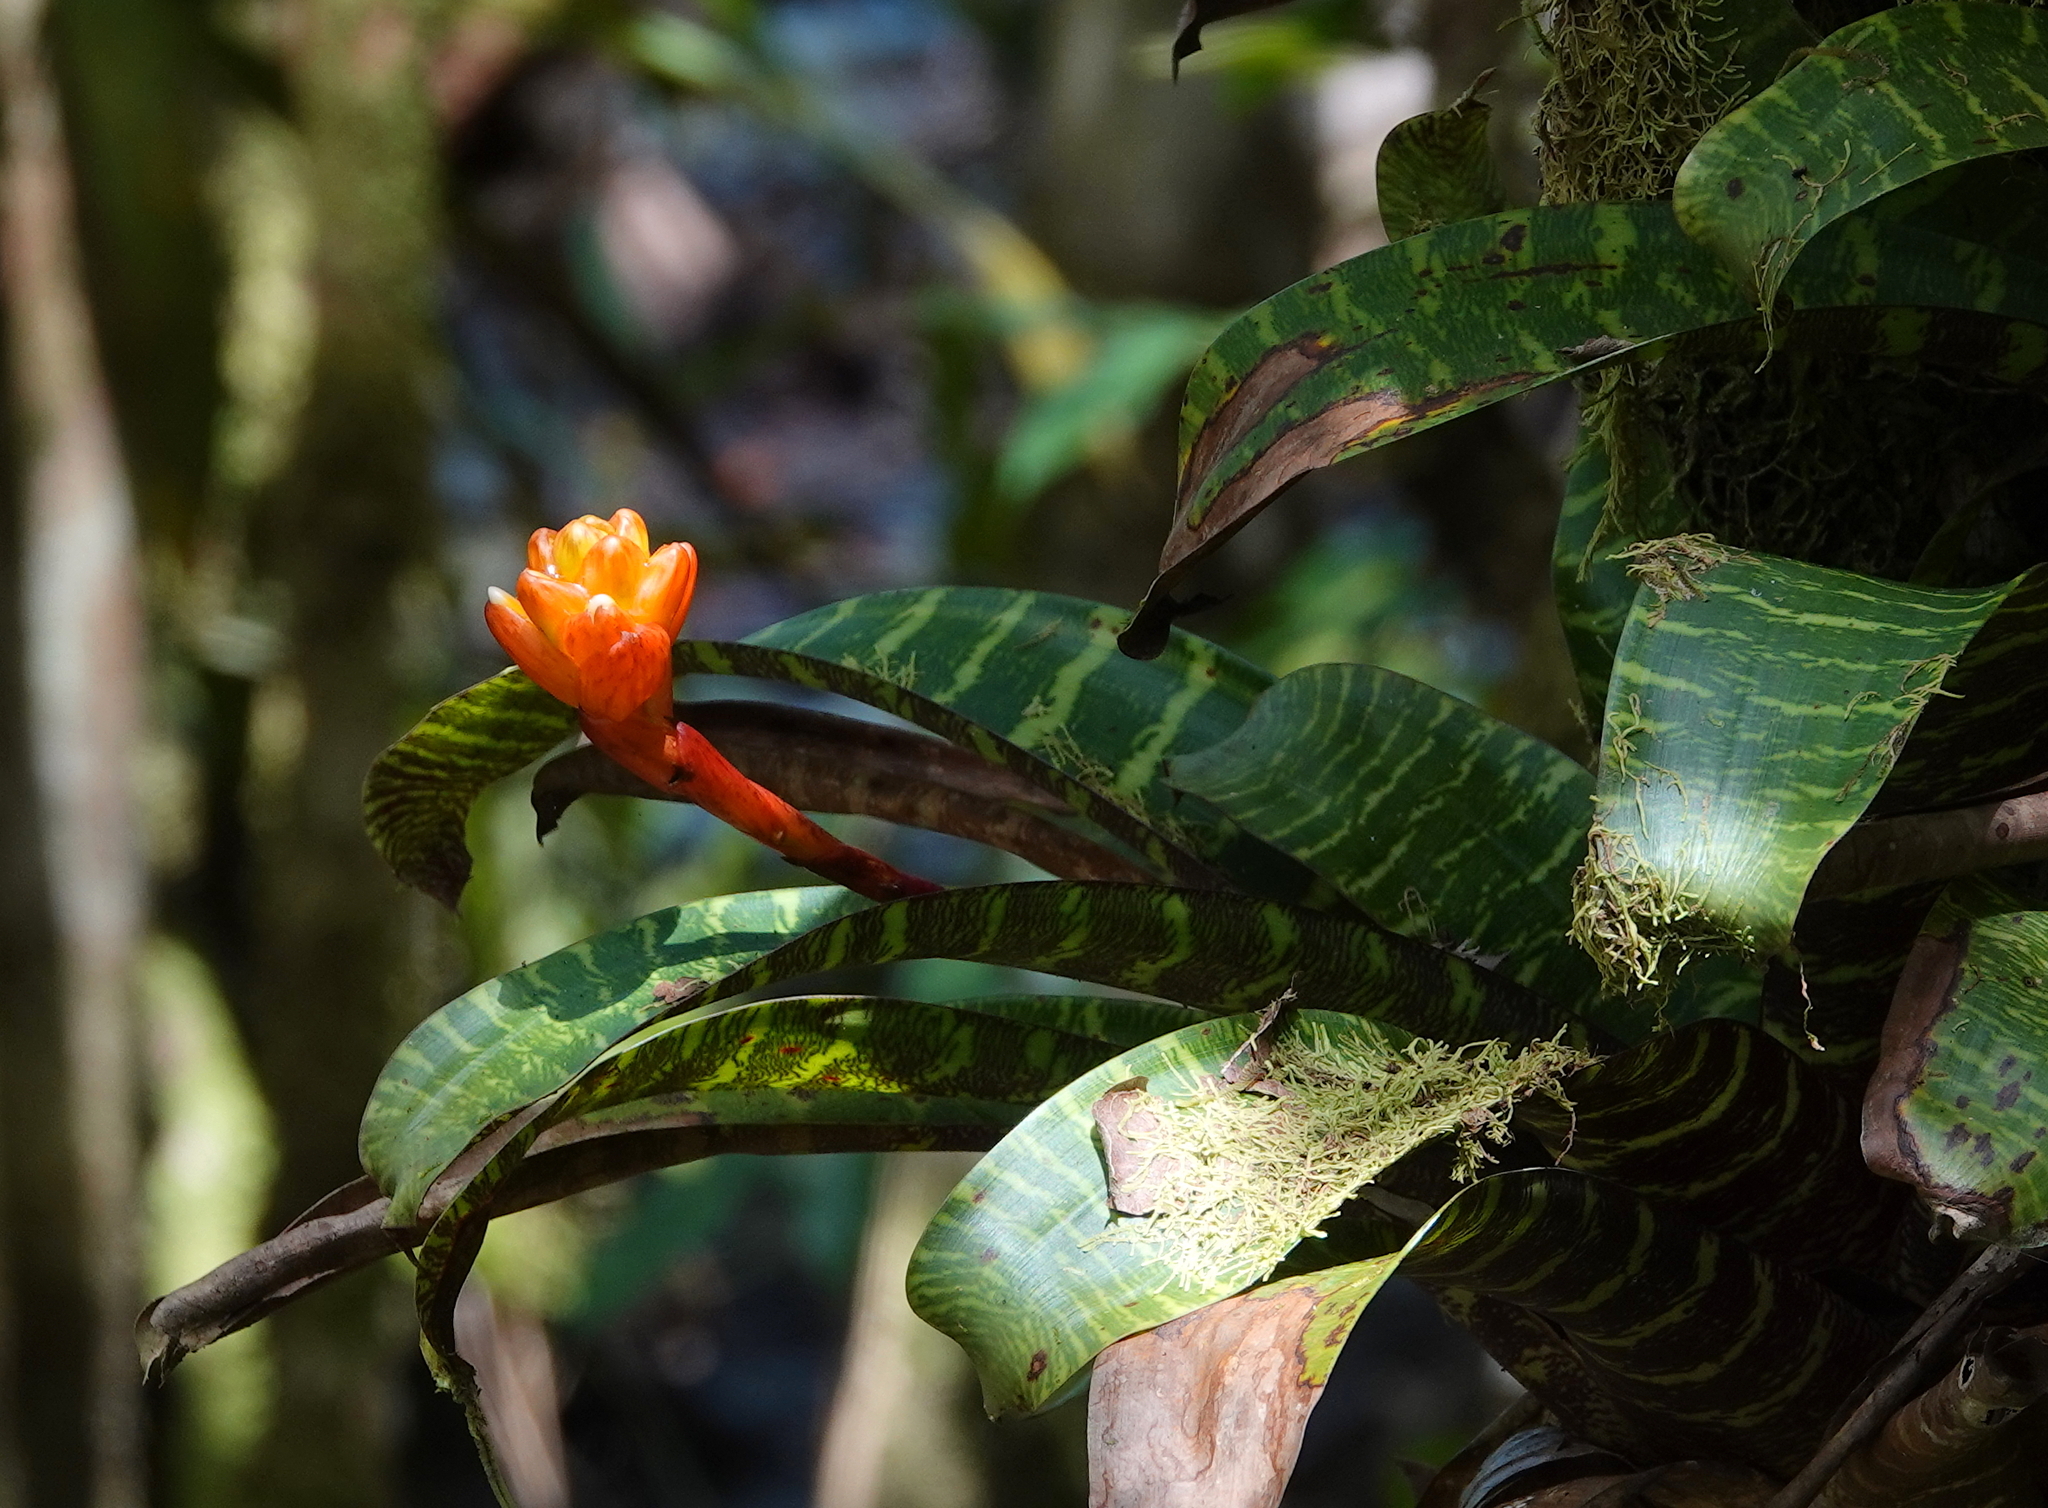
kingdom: Plantae
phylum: Tracheophyta
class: Liliopsida
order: Poales
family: Bromeliaceae
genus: Guzmania
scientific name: Guzmania musaica
